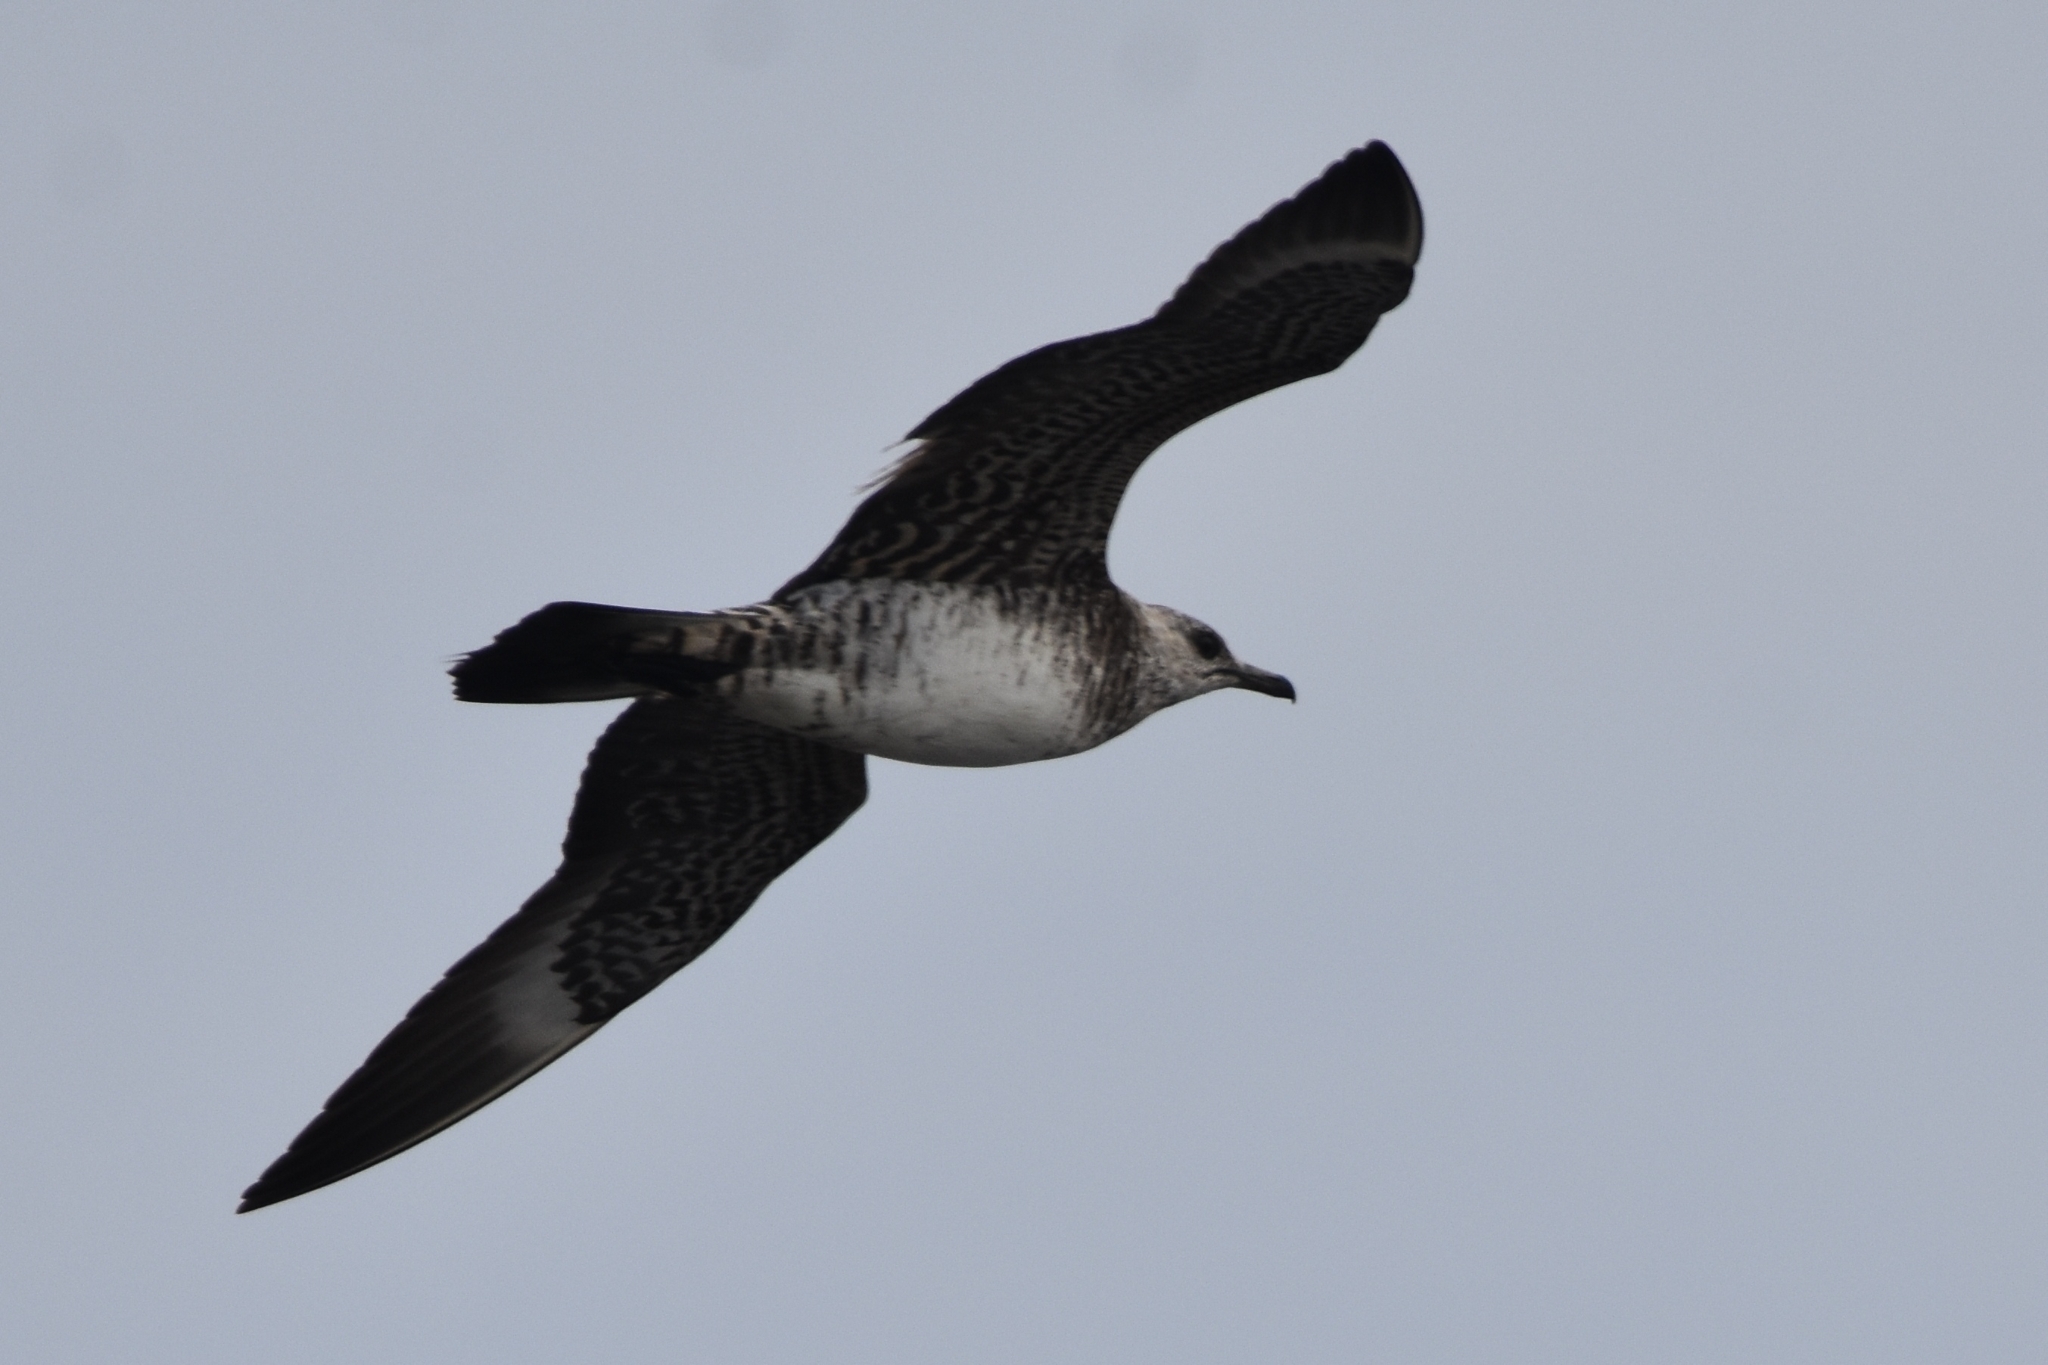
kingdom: Animalia
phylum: Chordata
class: Aves
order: Charadriiformes
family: Stercorariidae
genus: Stercorarius
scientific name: Stercorarius parasiticus
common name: Parasitic jaeger
